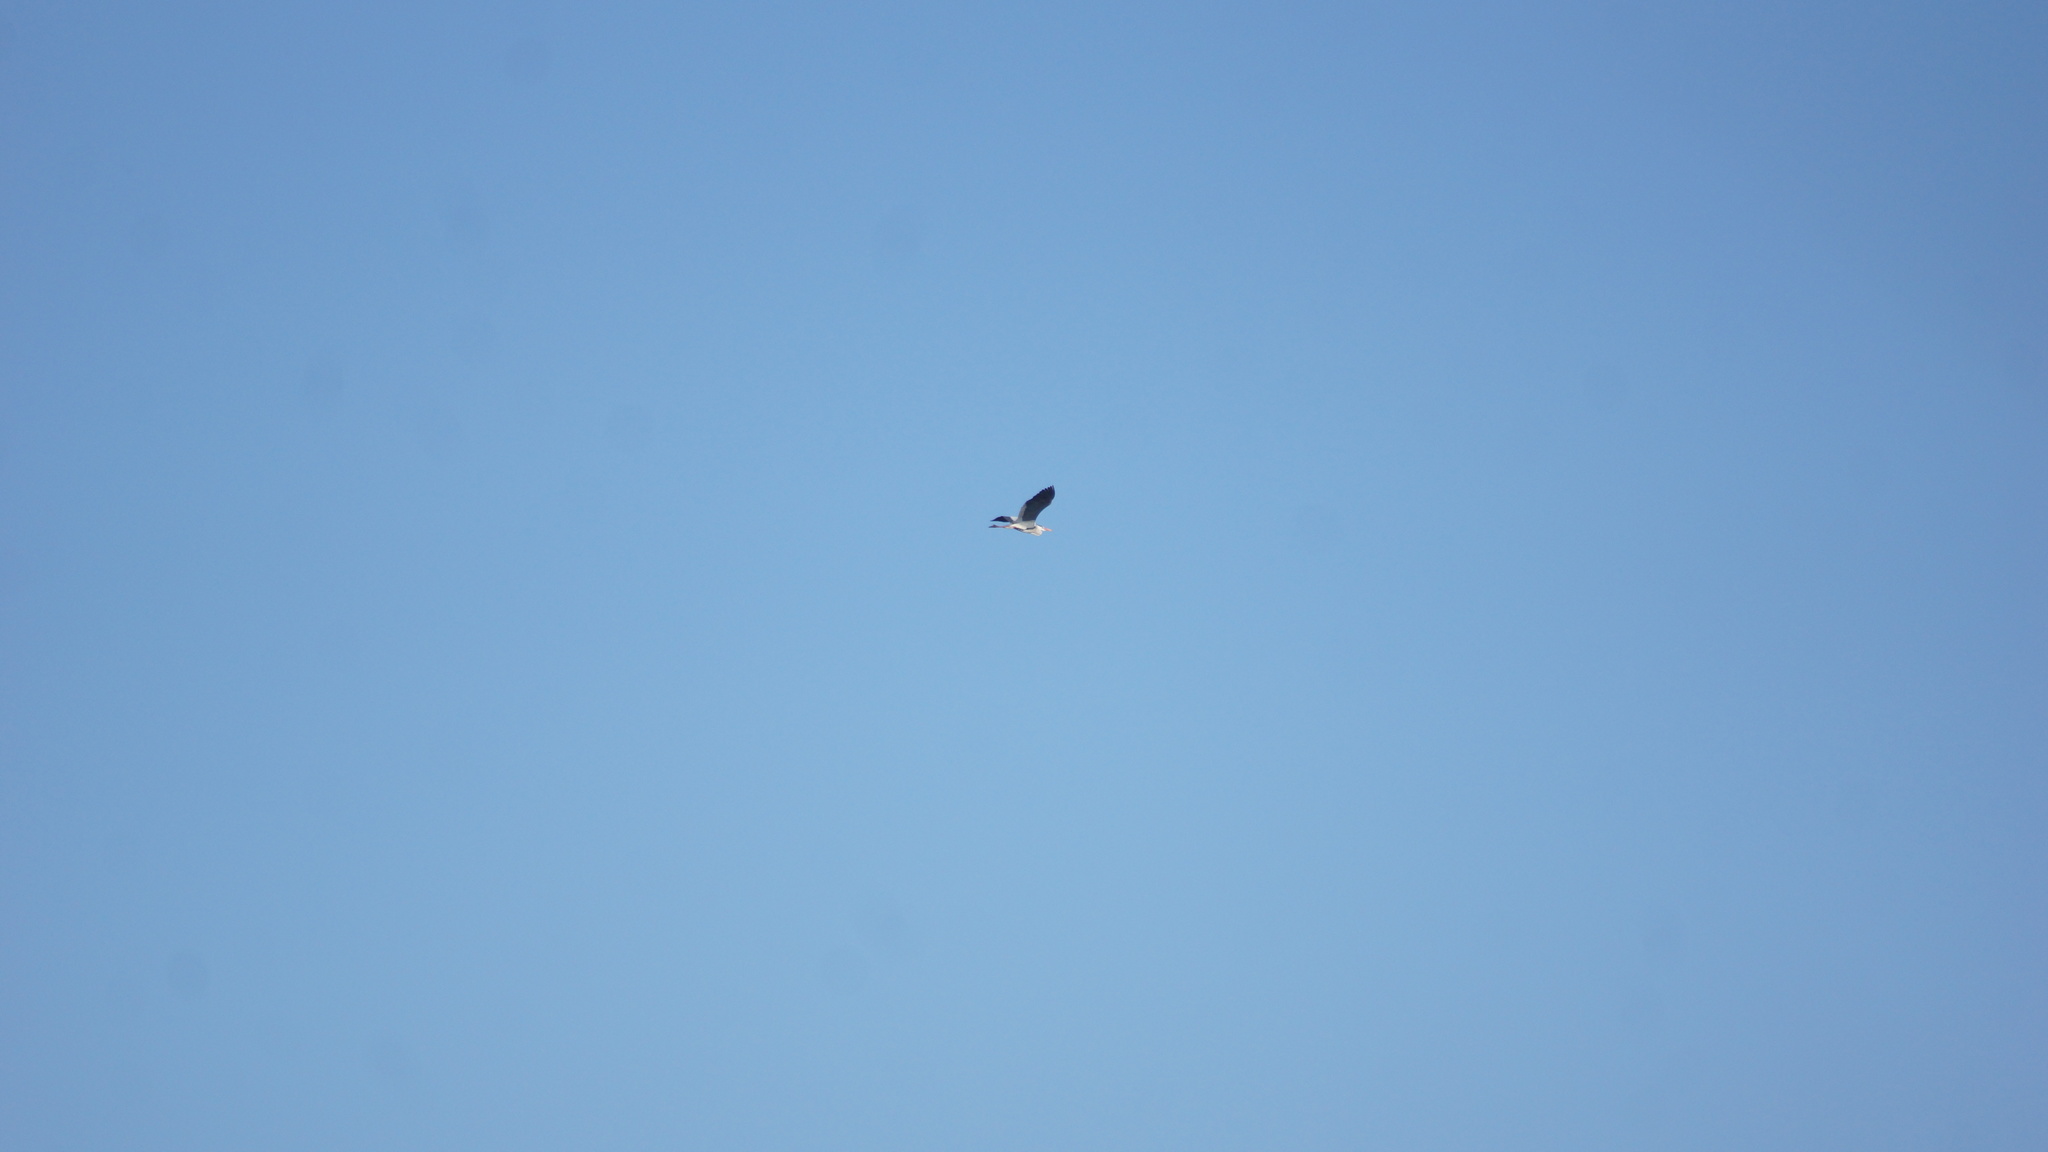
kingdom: Animalia
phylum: Chordata
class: Aves
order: Pelecaniformes
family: Ardeidae
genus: Ardea
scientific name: Ardea cinerea
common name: Grey heron
